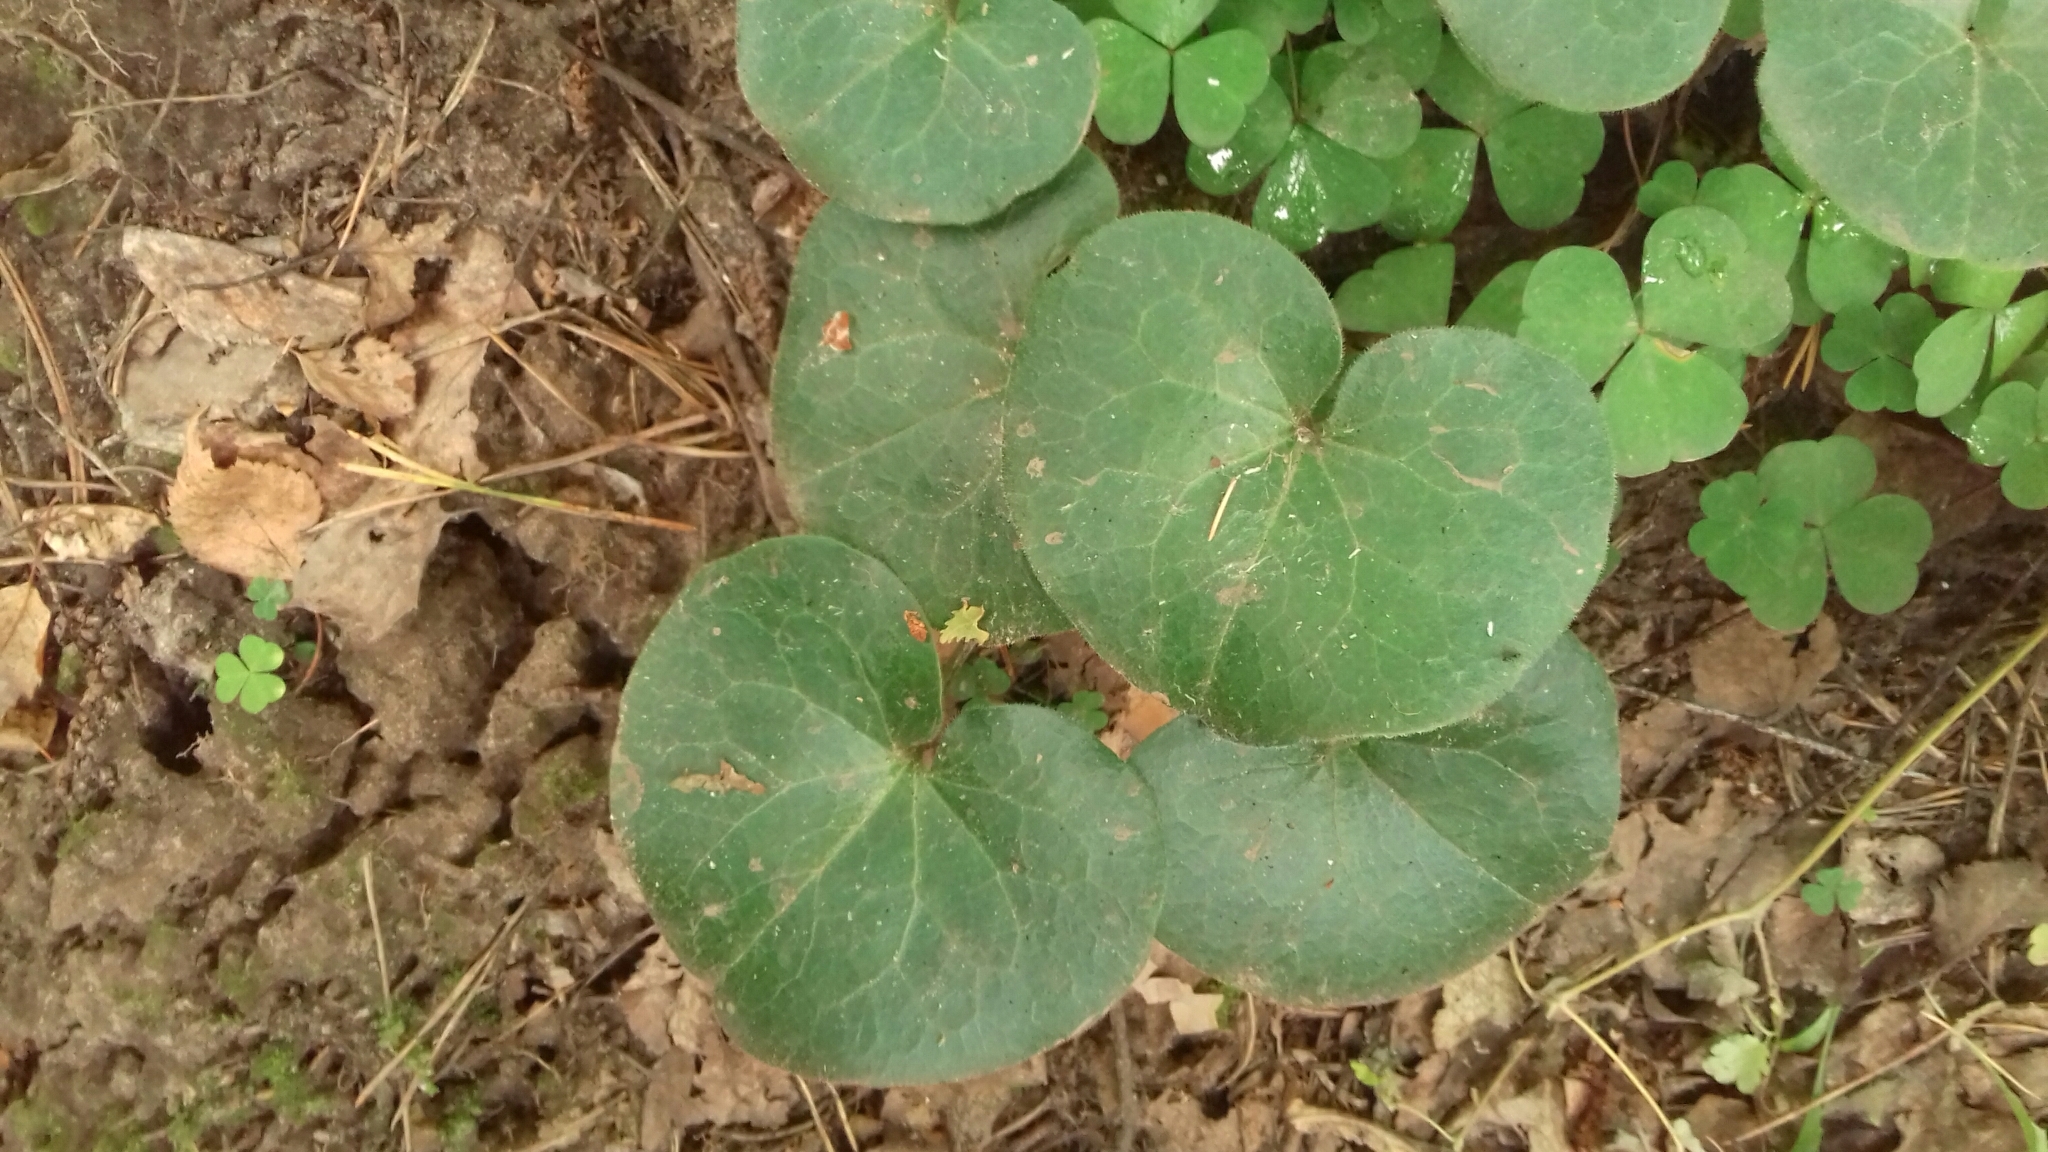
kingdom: Plantae
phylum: Tracheophyta
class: Magnoliopsida
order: Piperales
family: Aristolochiaceae
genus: Asarum
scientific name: Asarum europaeum
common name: Asarabacca
